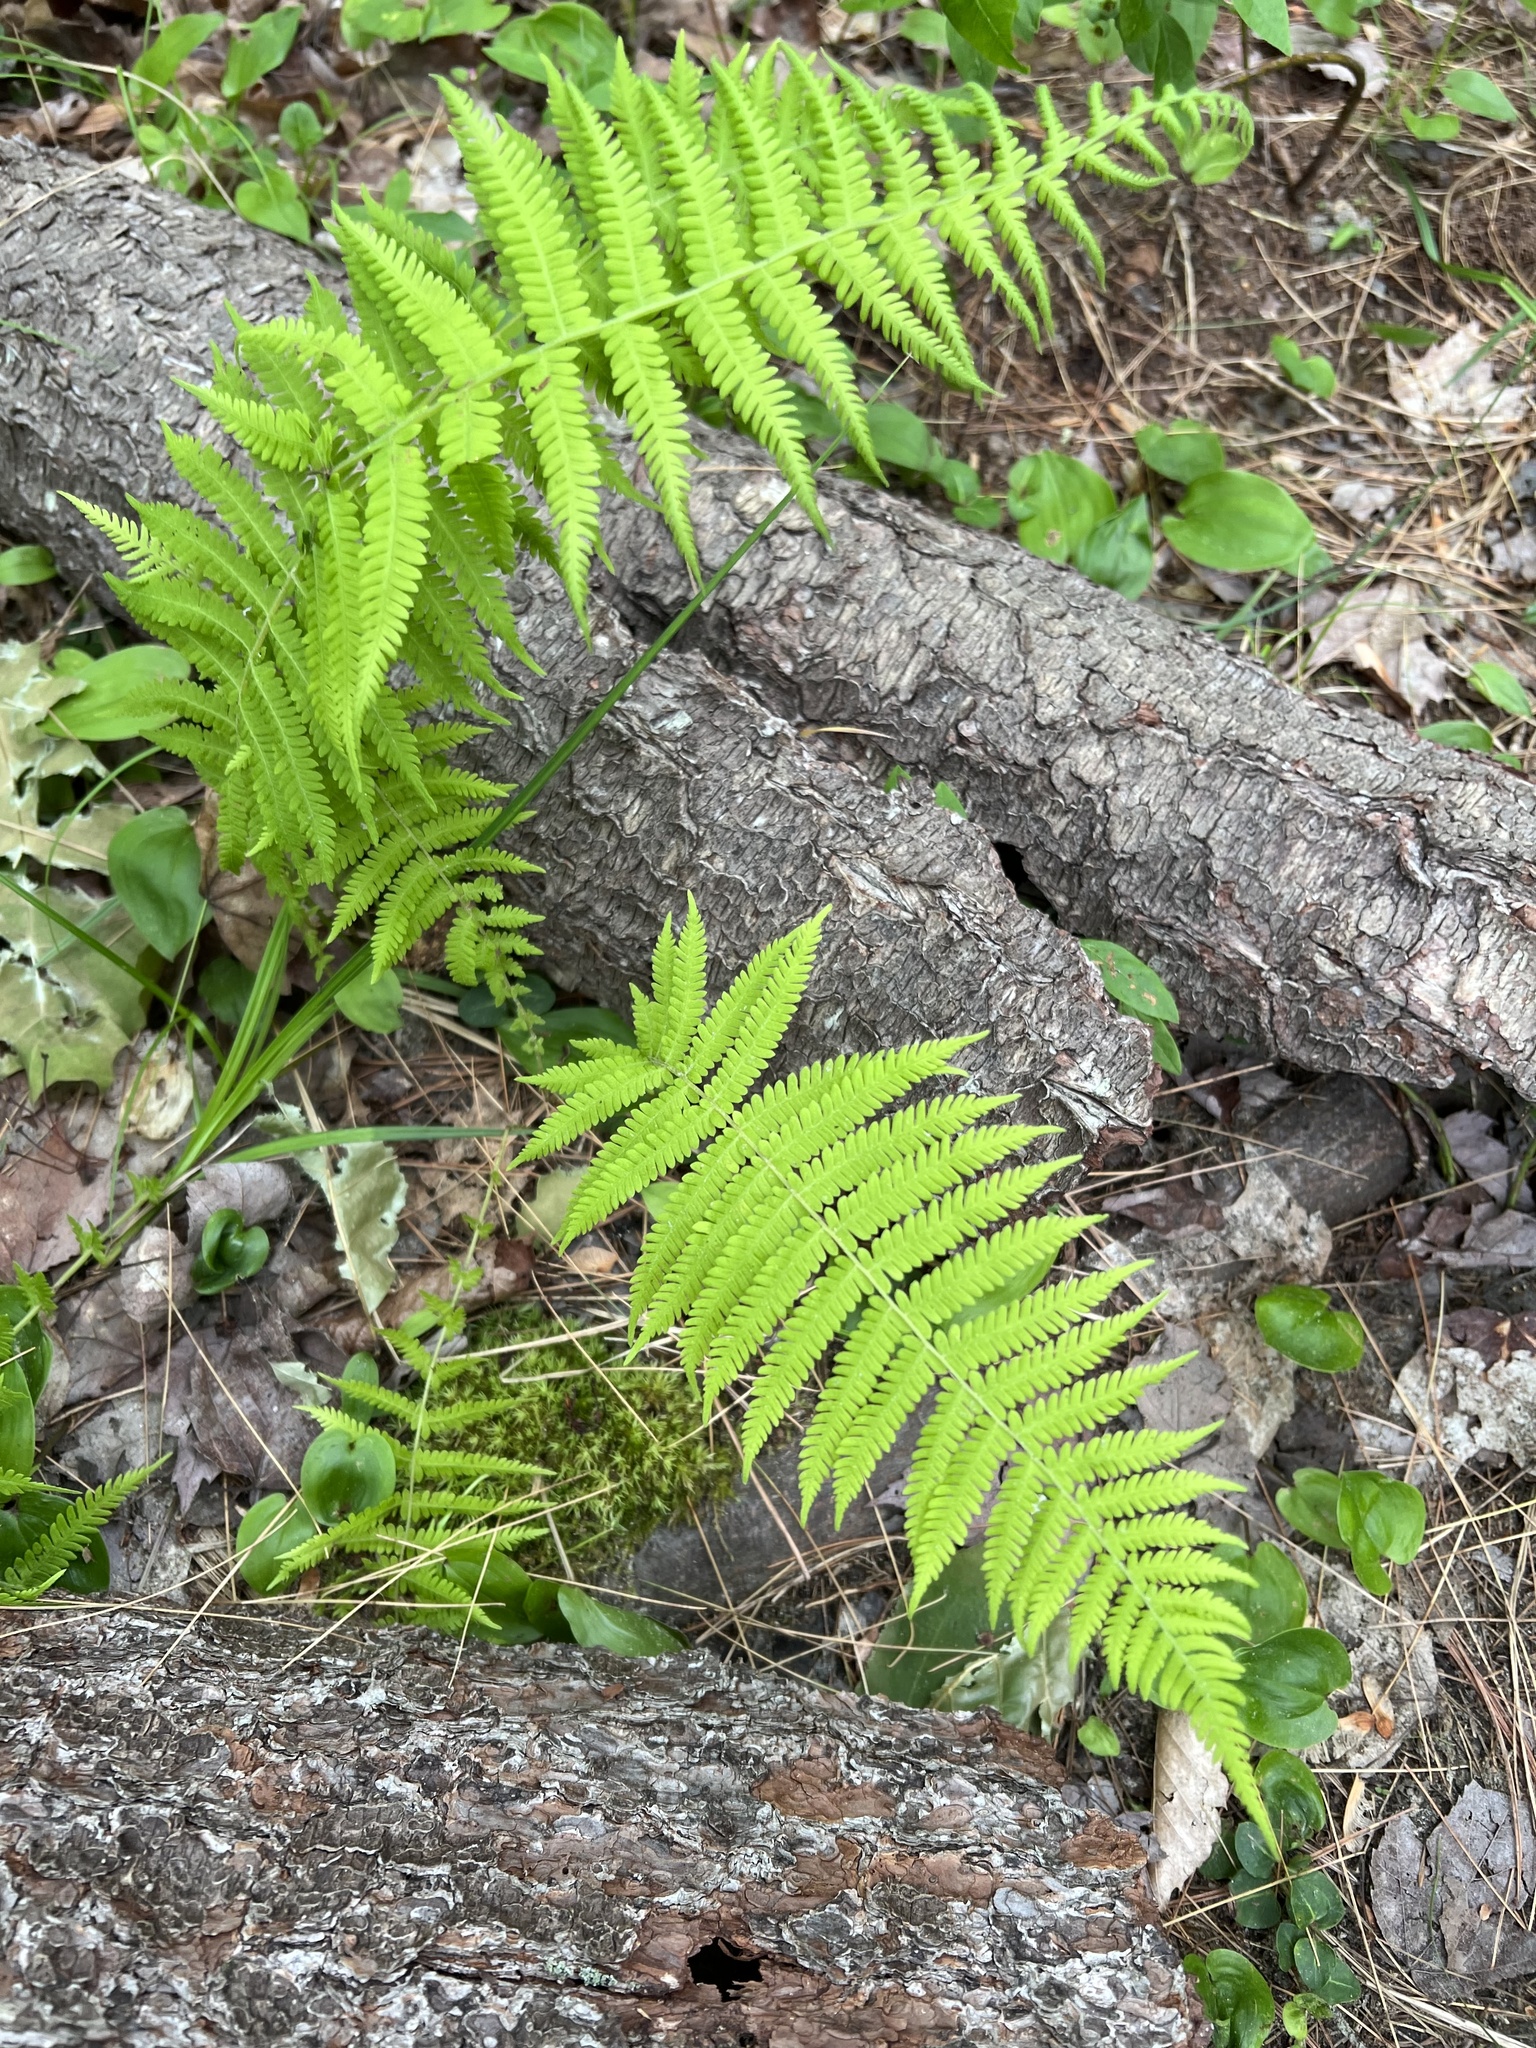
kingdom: Plantae
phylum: Tracheophyta
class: Polypodiopsida
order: Polypodiales
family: Thelypteridaceae
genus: Amauropelta
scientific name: Amauropelta noveboracensis
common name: New york fern
